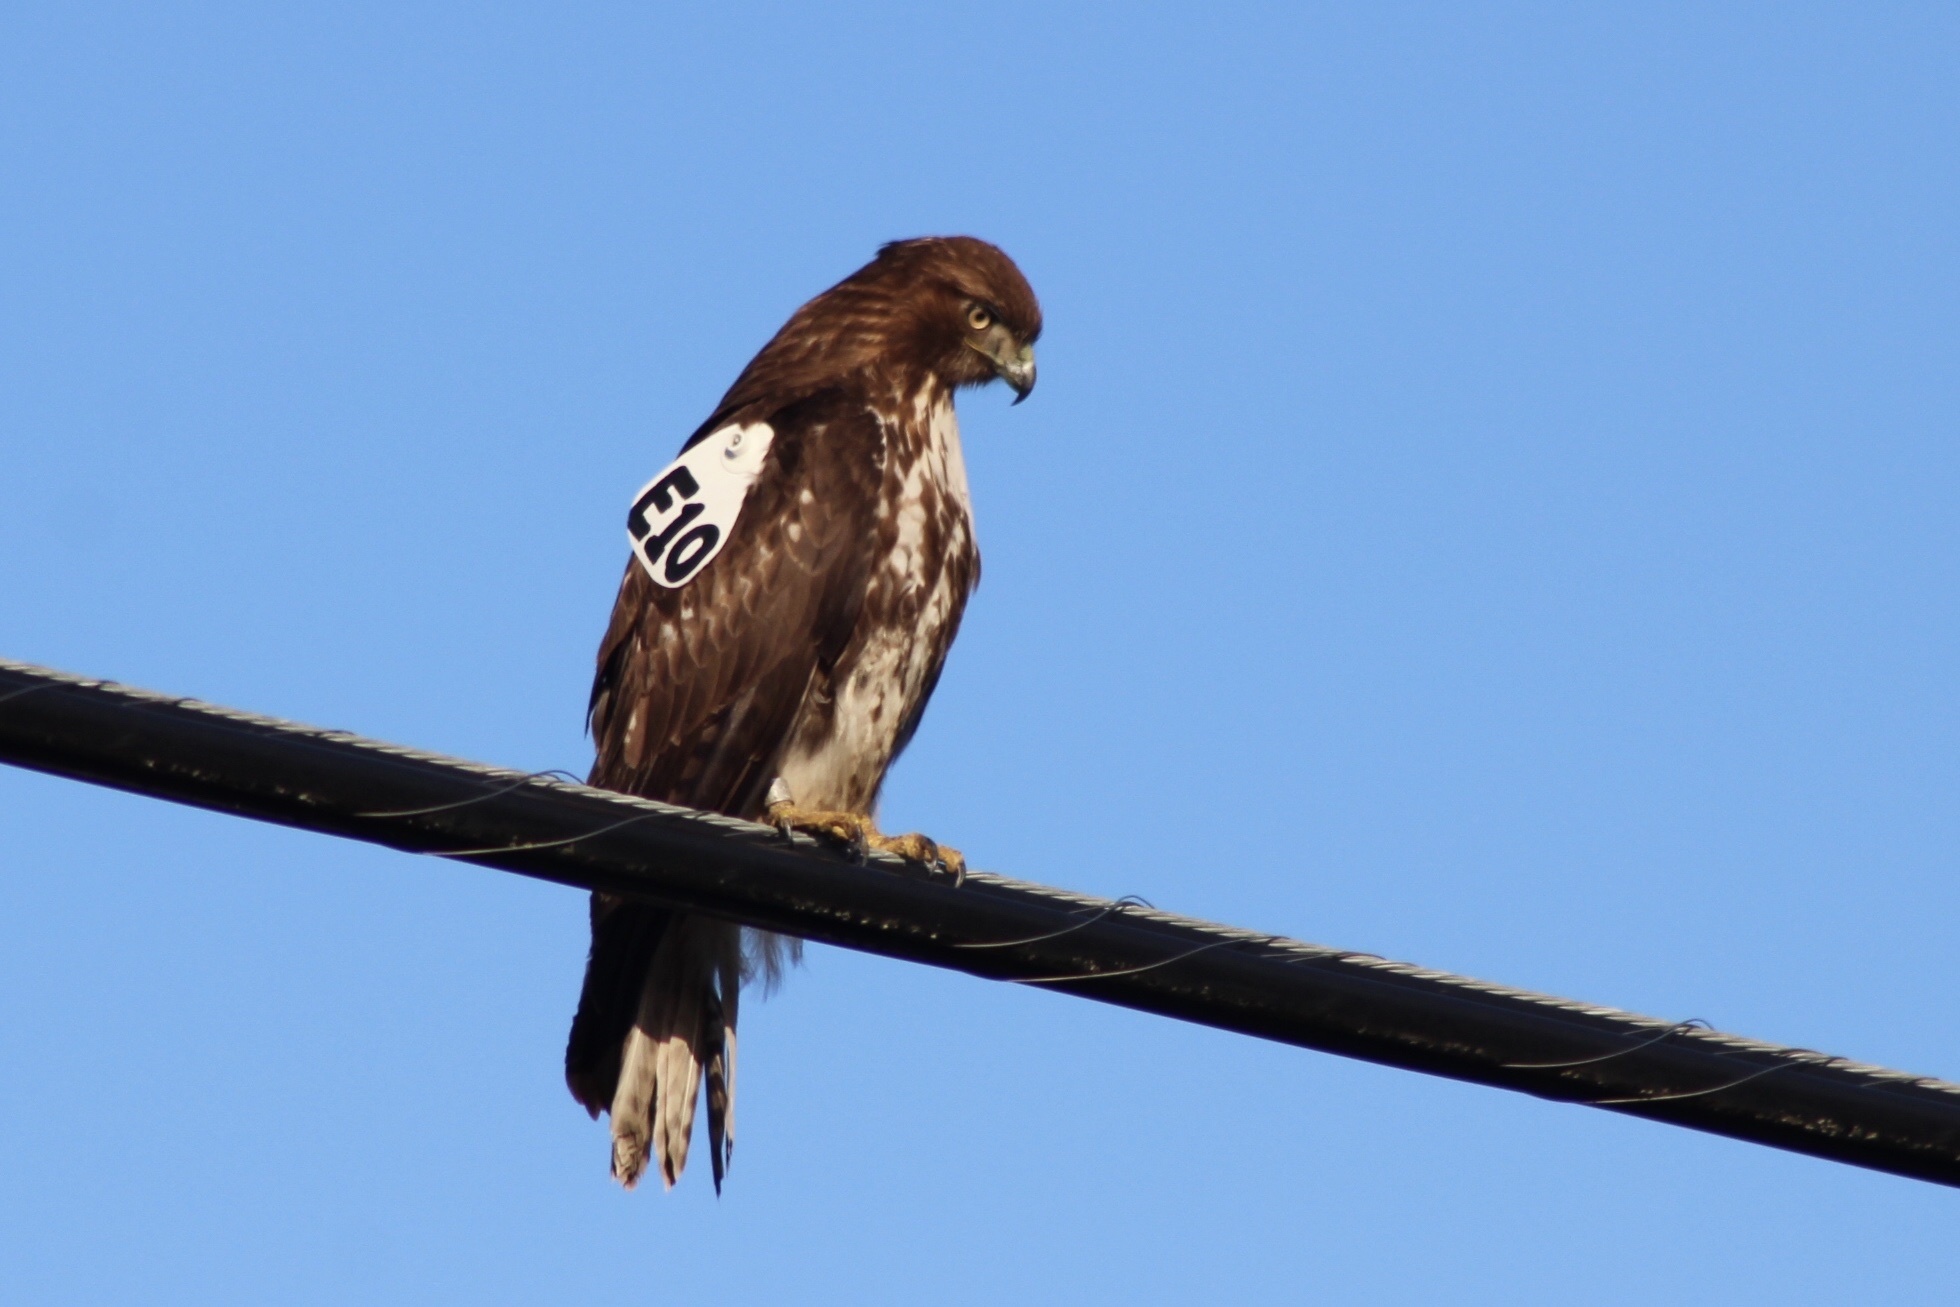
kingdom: Animalia
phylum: Chordata
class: Aves
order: Accipitriformes
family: Accipitridae
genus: Buteo
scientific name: Buteo jamaicensis
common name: Red-tailed hawk
